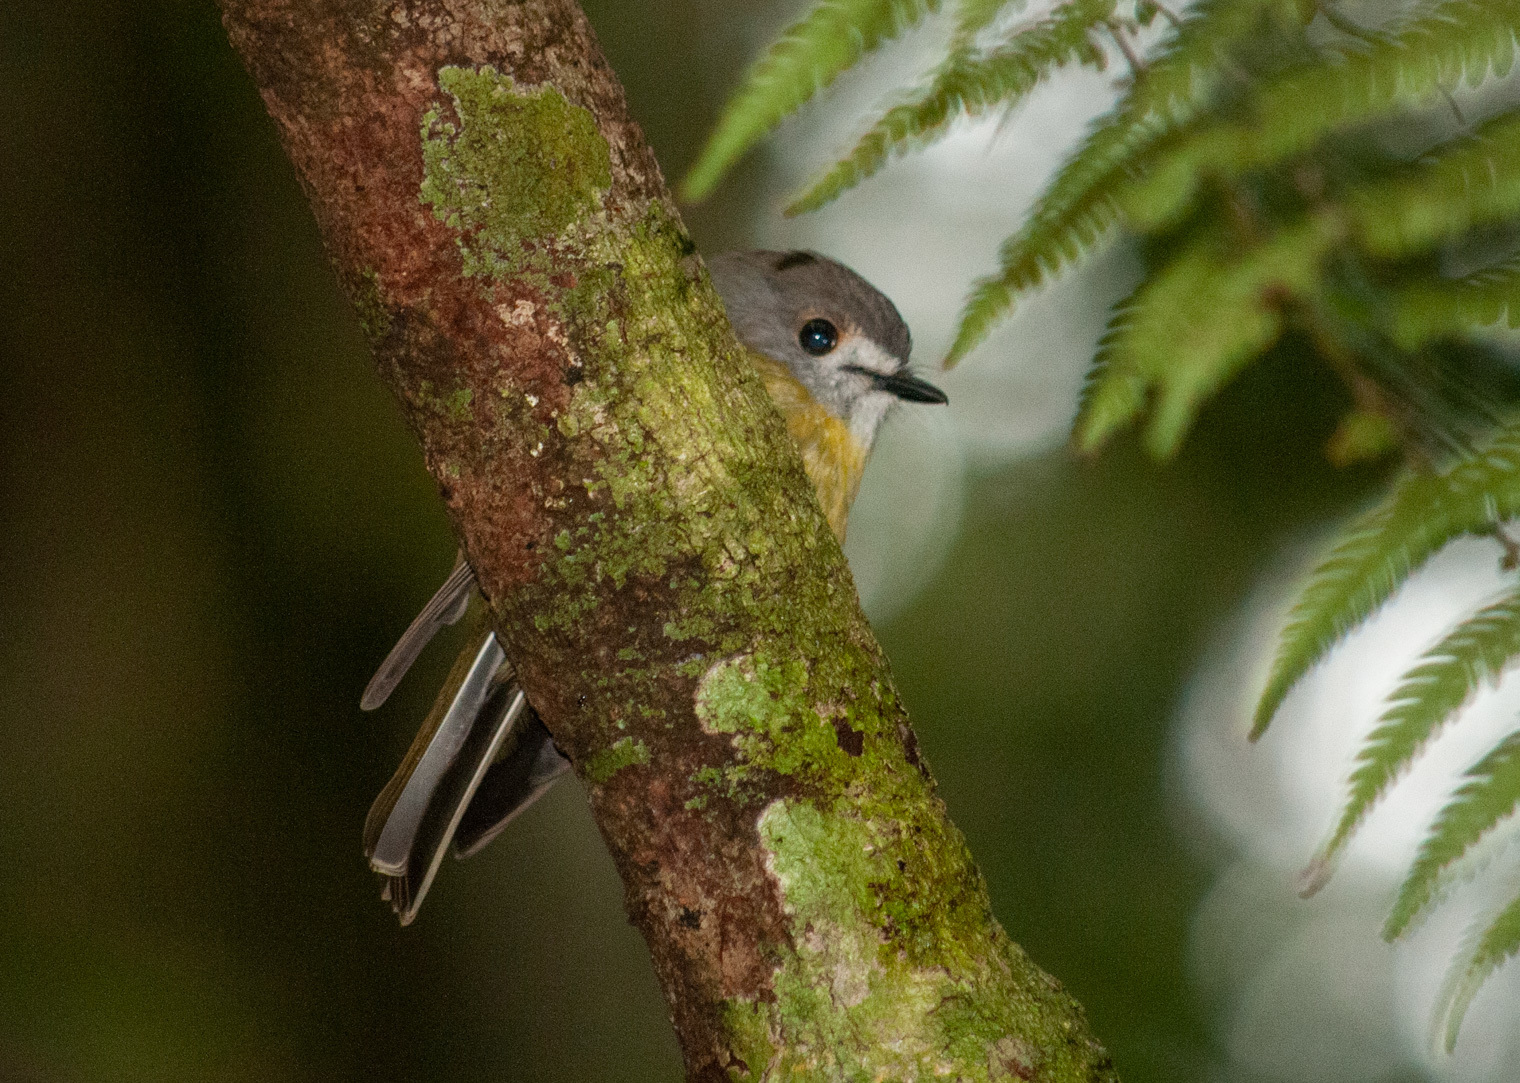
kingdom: Animalia
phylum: Chordata
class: Aves
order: Passeriformes
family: Petroicidae
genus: Eopsaltria
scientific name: Eopsaltria
